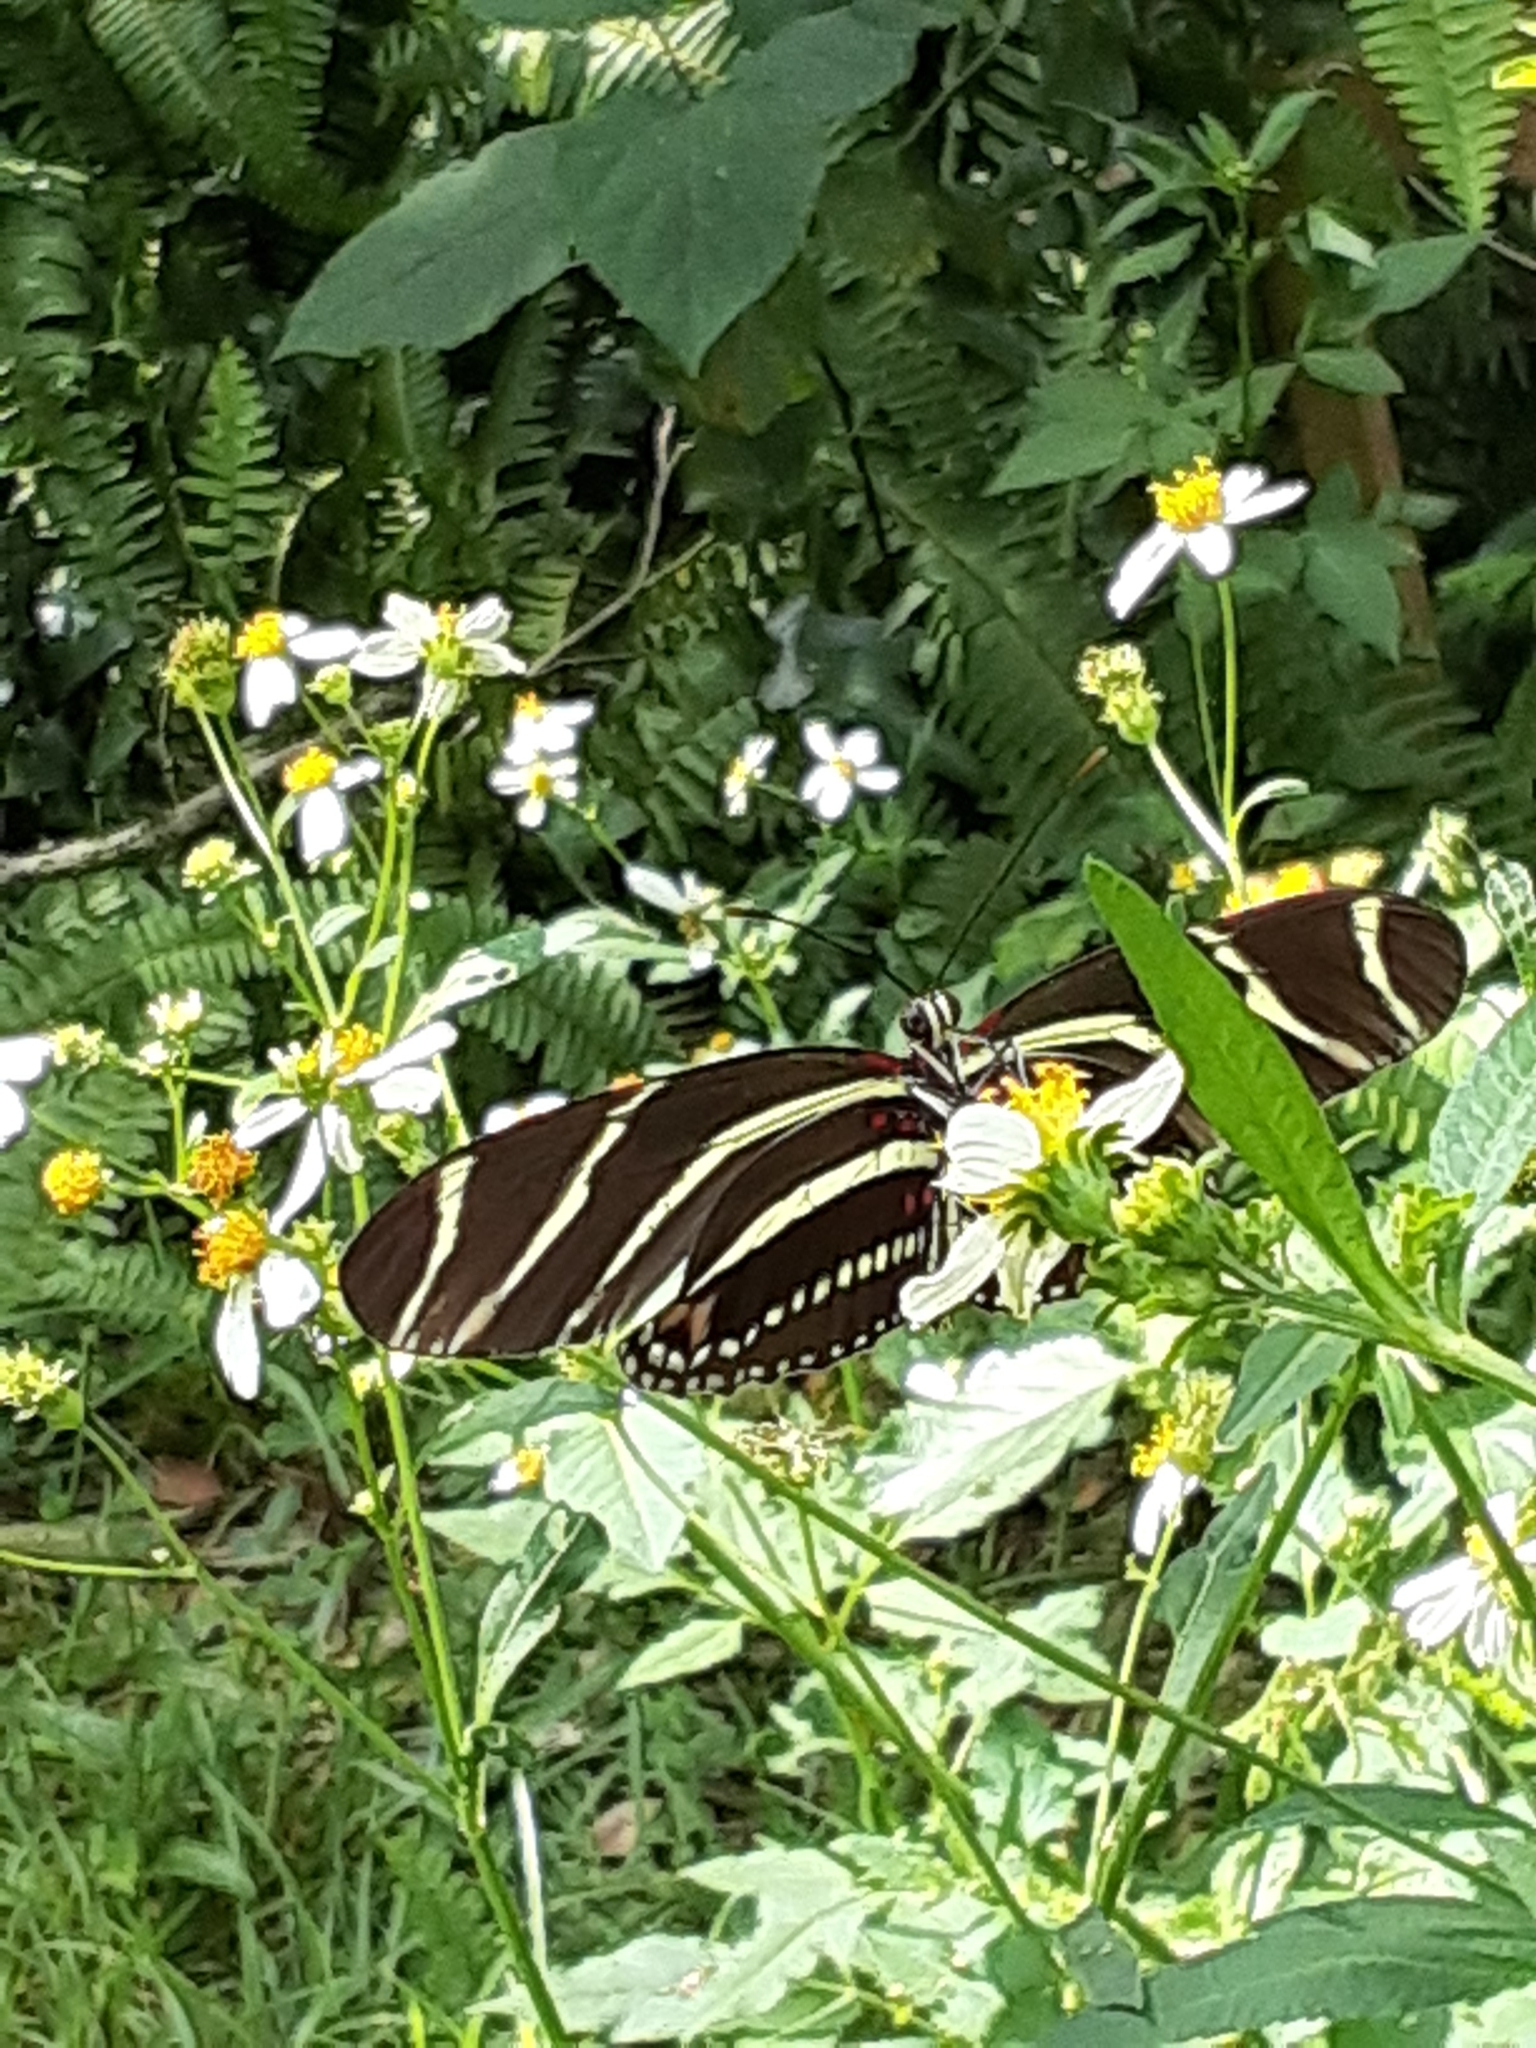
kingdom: Animalia
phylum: Arthropoda
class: Insecta
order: Lepidoptera
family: Nymphalidae
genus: Heliconius
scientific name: Heliconius charithonia
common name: Zebra long wing
